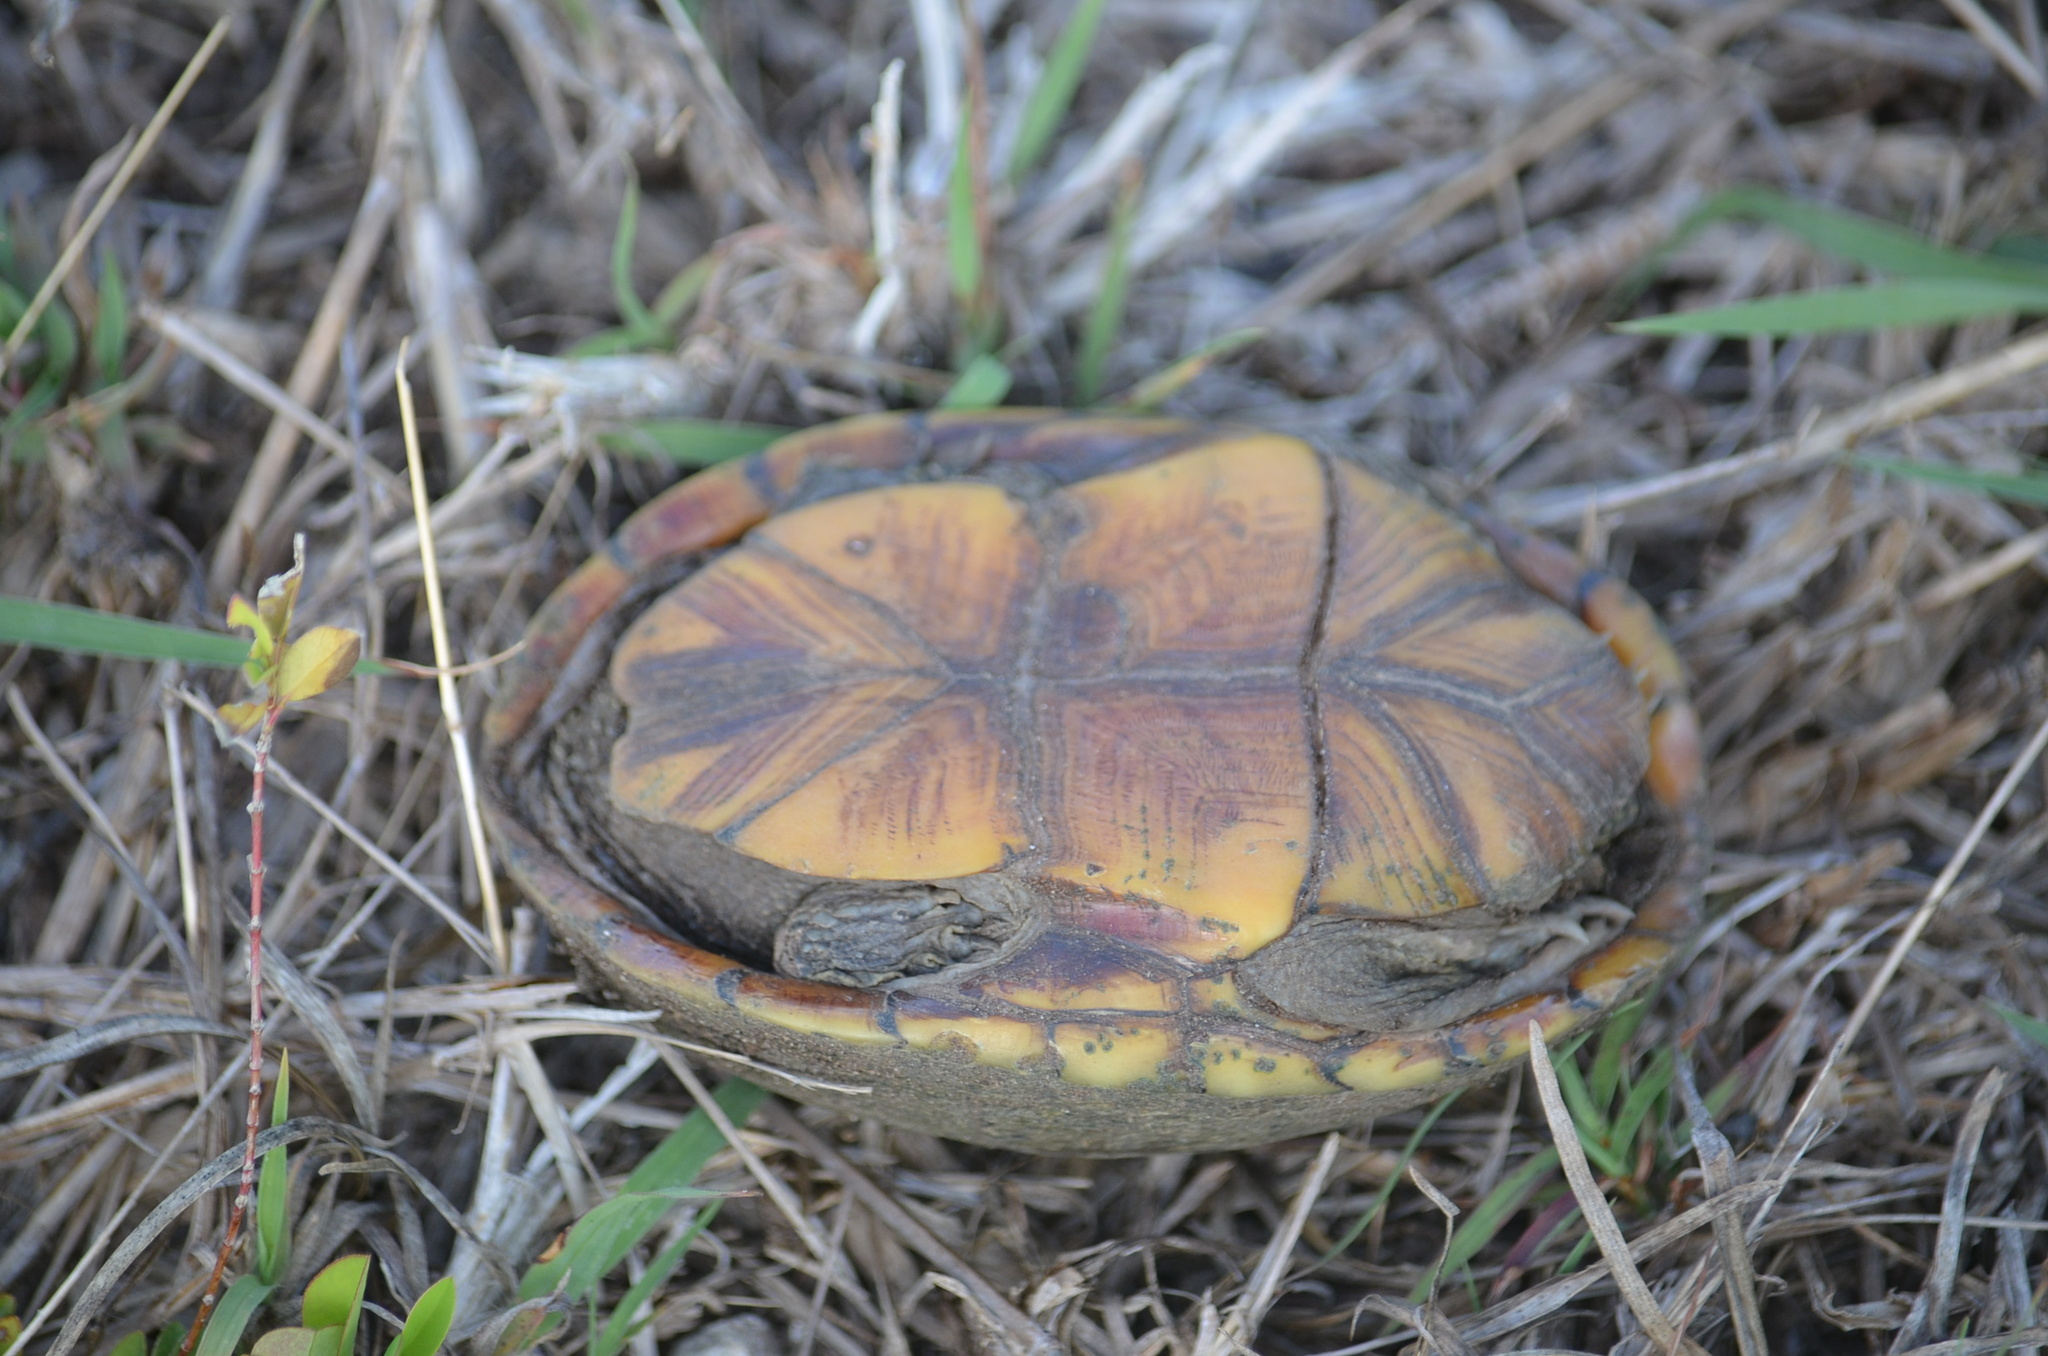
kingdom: Animalia
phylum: Chordata
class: Testudines
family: Kinosternidae
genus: Kinosternon
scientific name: Kinosternon baurii
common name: Striped mud turtle
